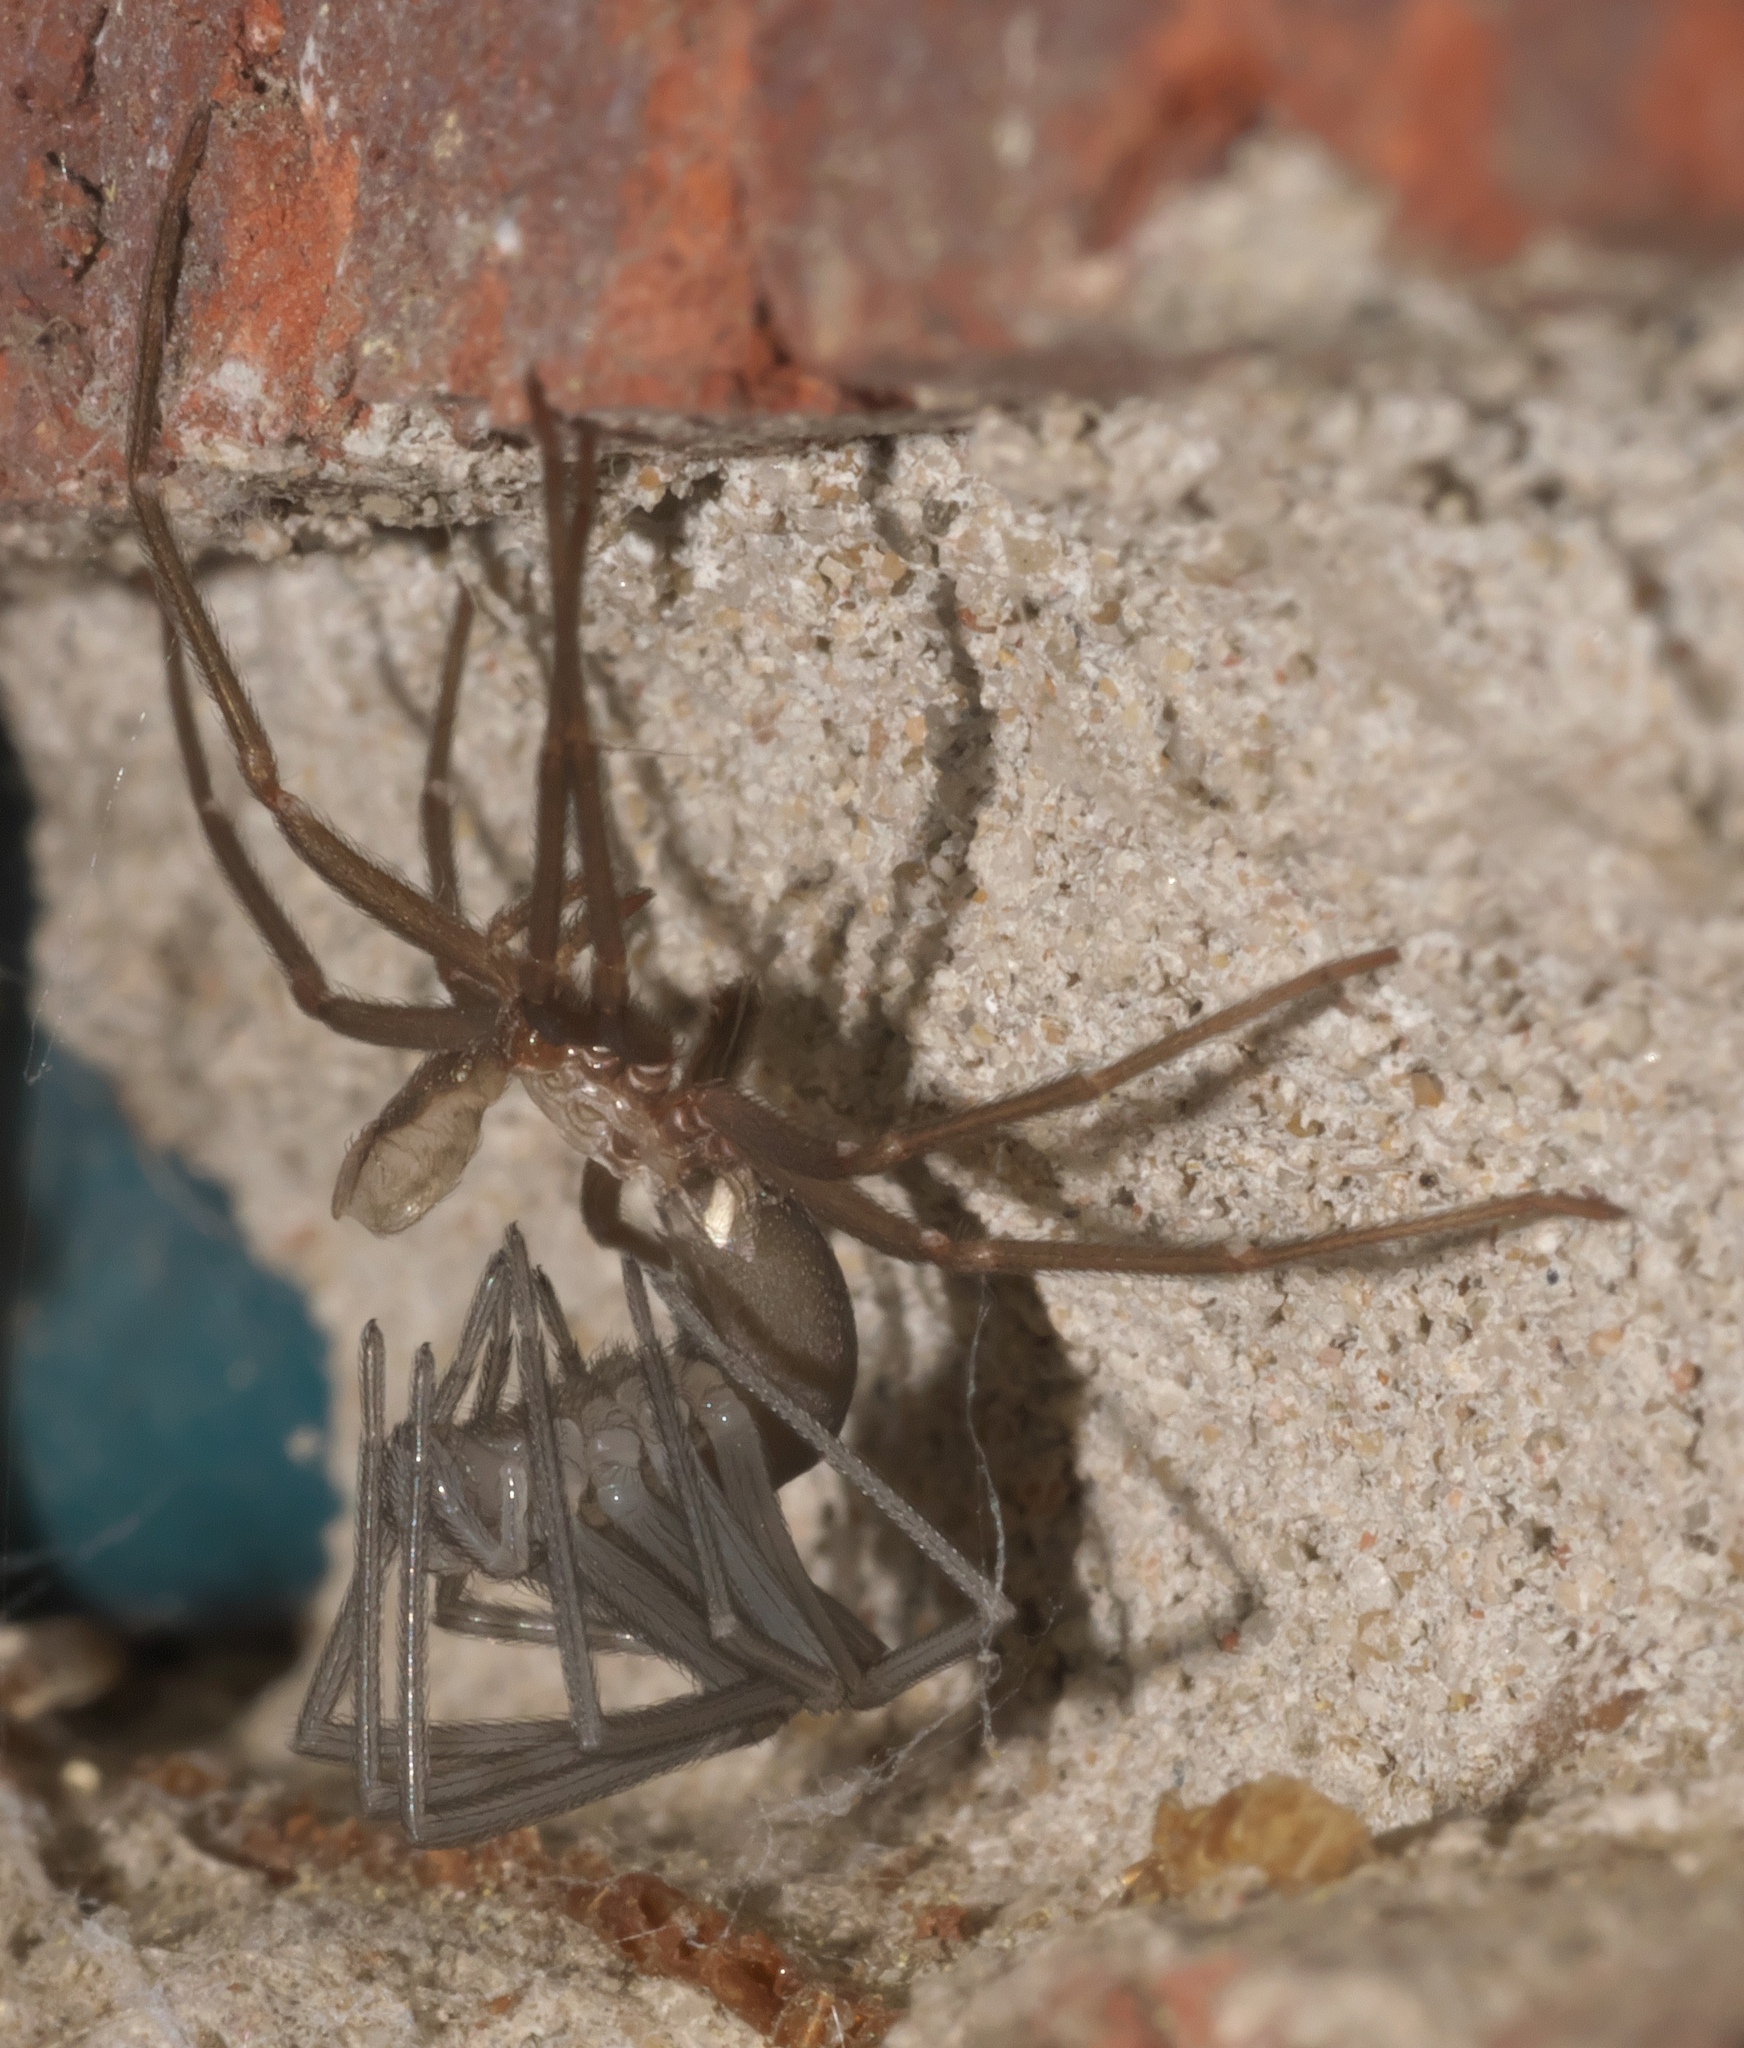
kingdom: Animalia
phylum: Arthropoda
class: Arachnida
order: Araneae
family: Sicariidae
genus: Loxosceles
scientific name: Loxosceles reclusa
